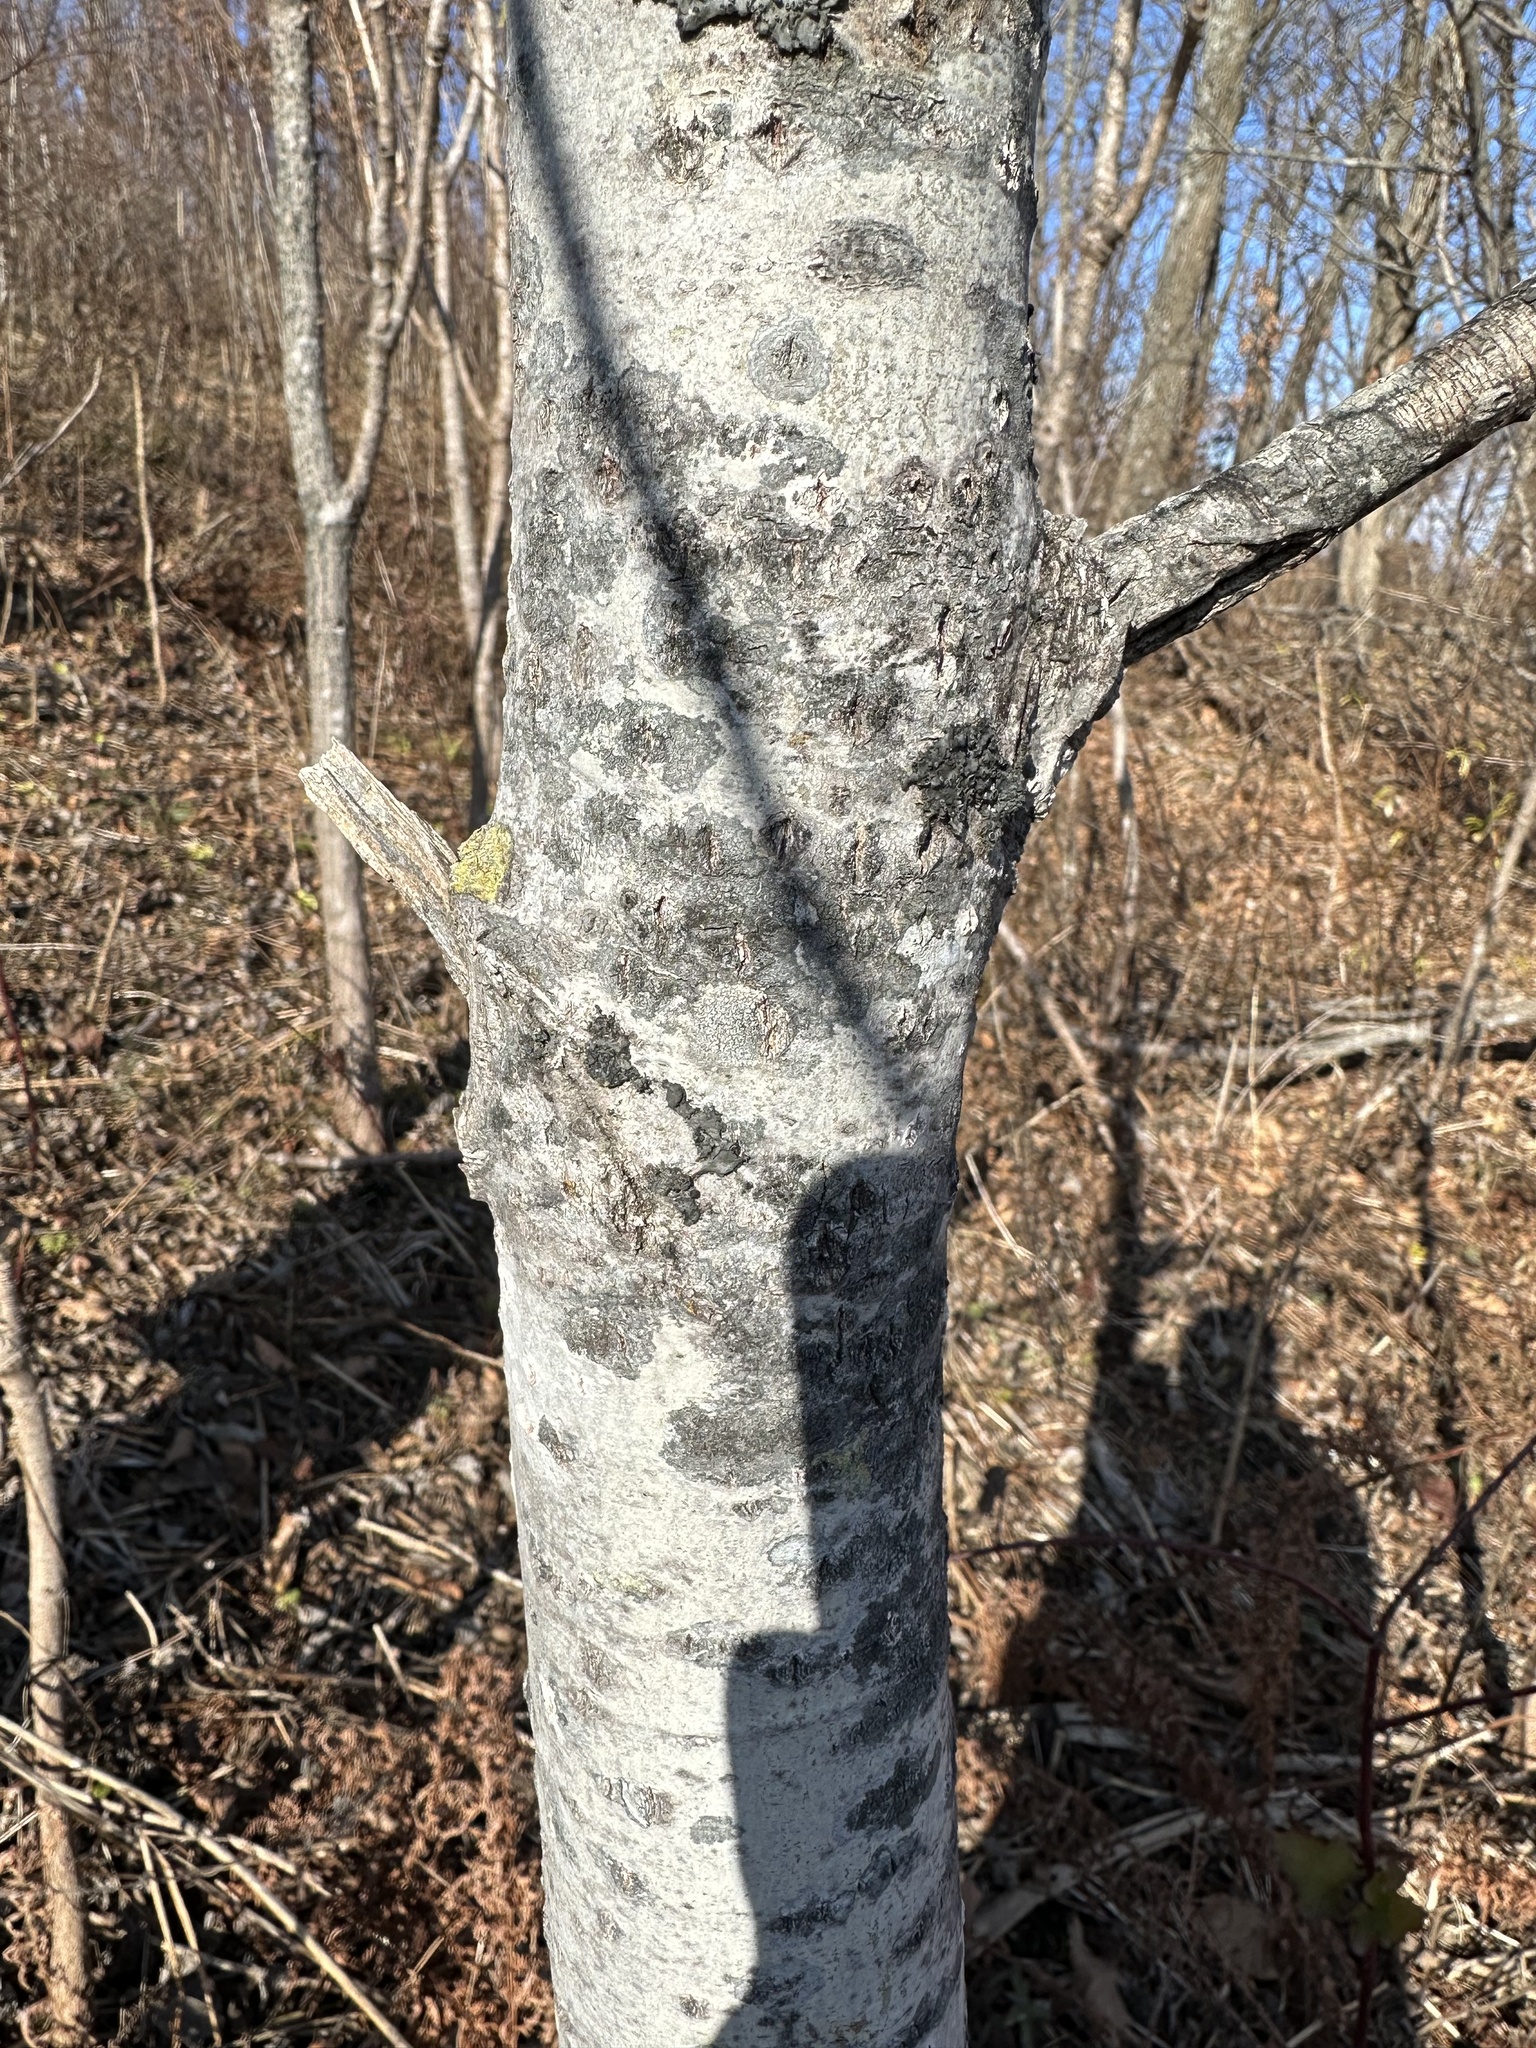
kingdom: Plantae
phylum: Tracheophyta
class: Magnoliopsida
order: Malpighiales
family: Salicaceae
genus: Populus
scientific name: Populus tremula
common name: European aspen
